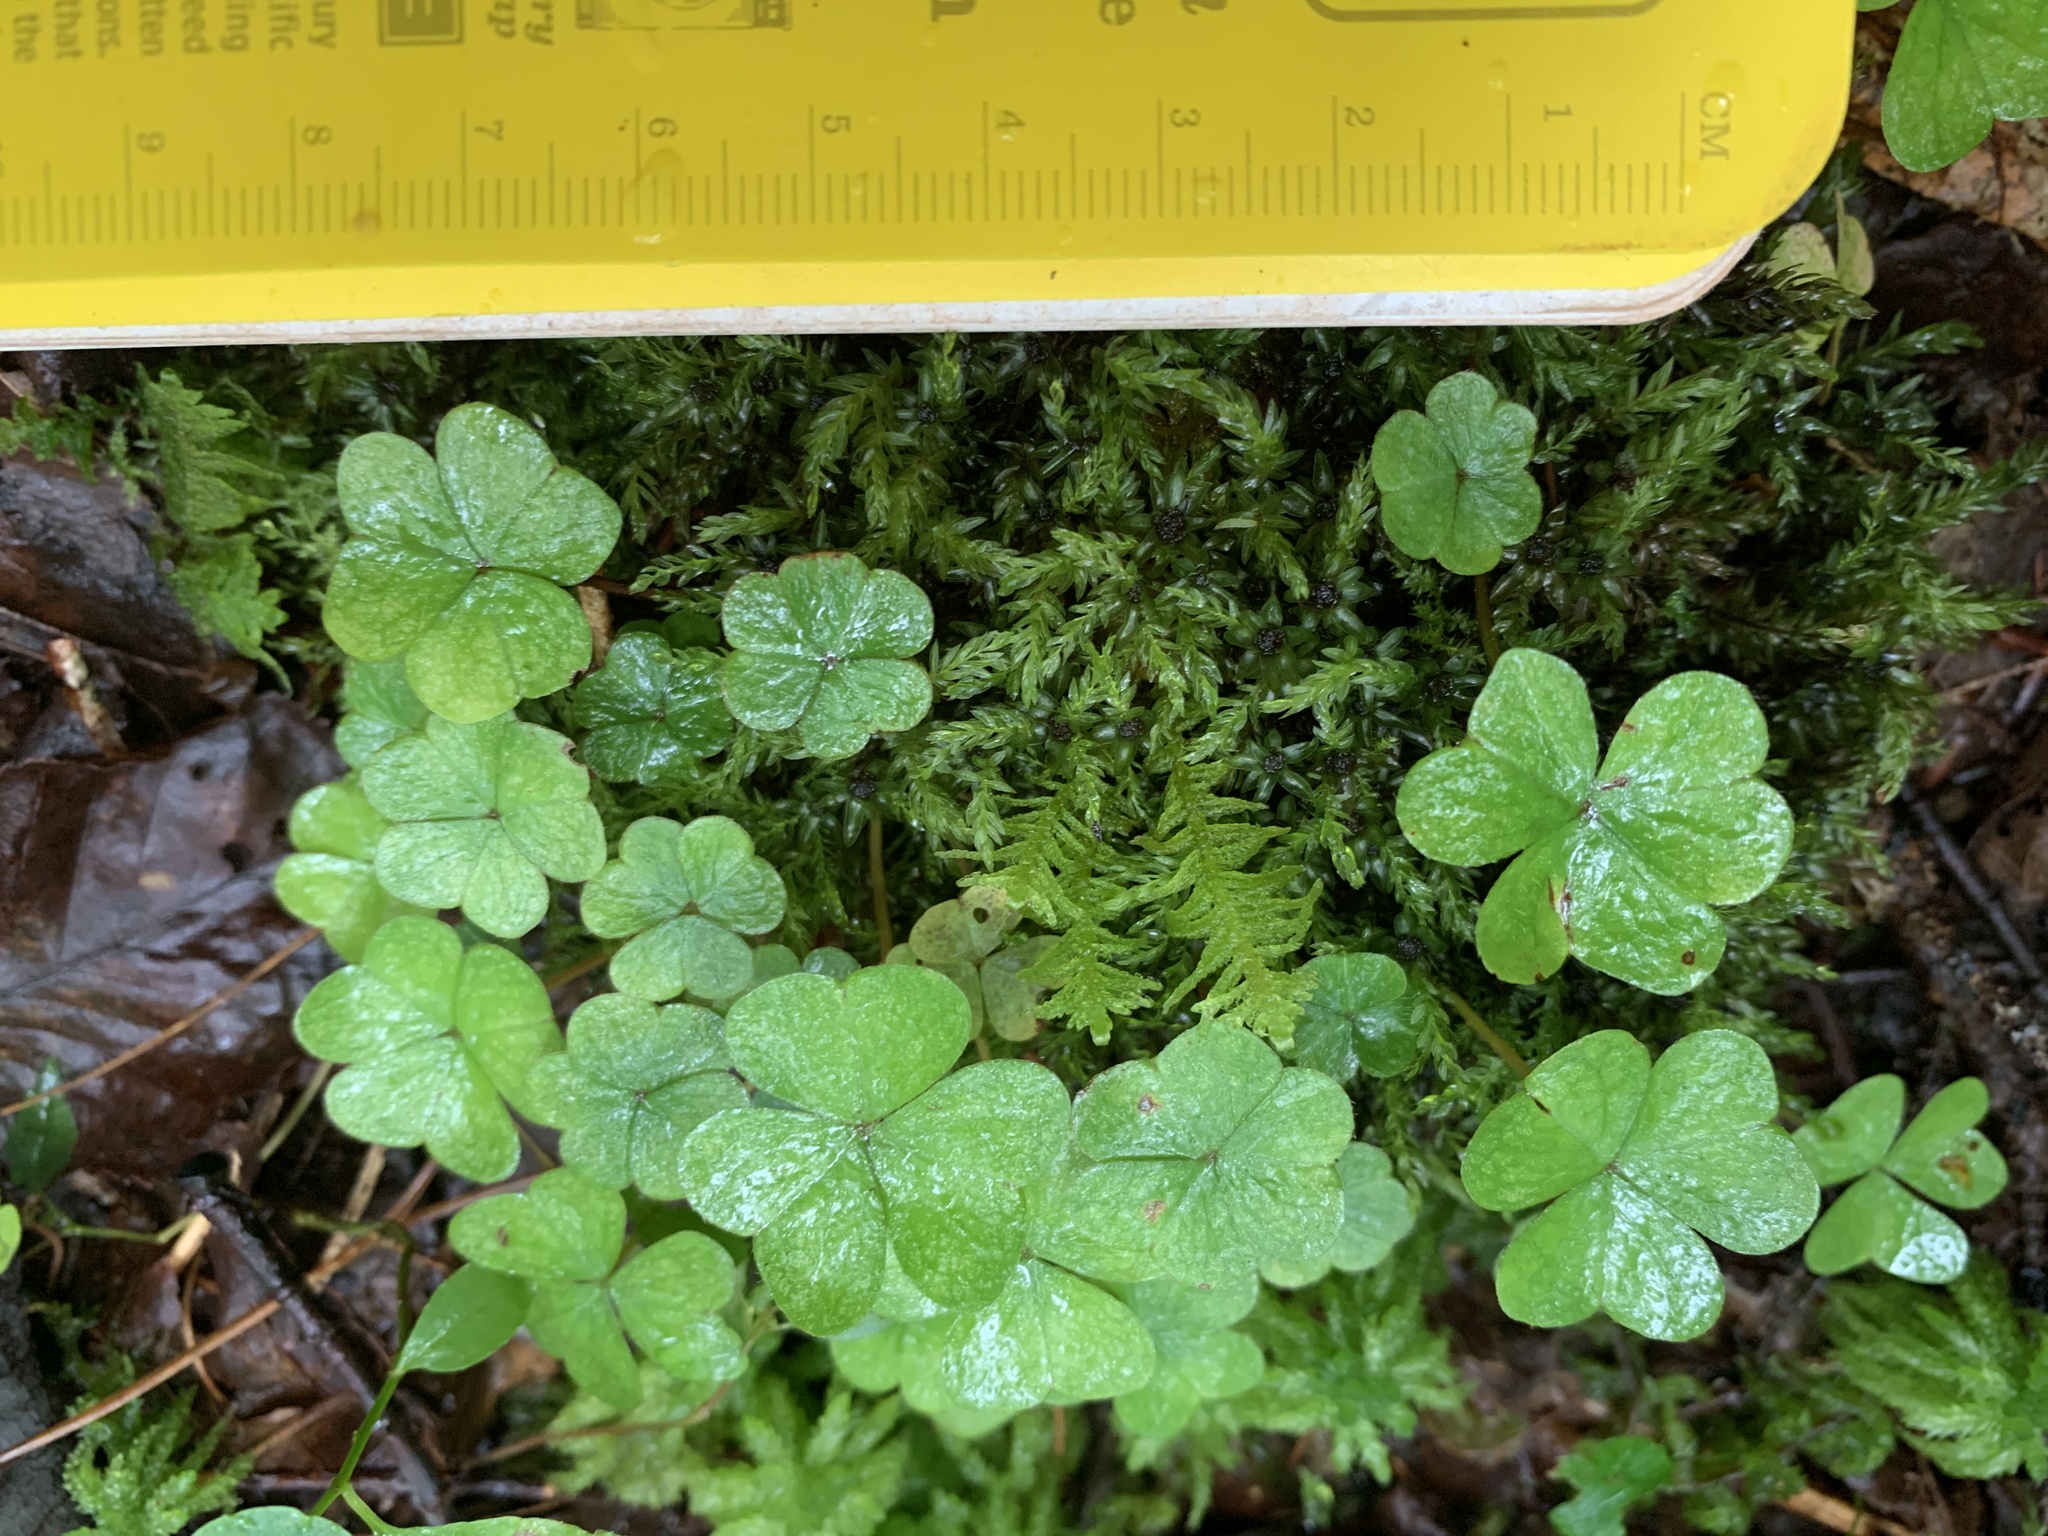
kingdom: Plantae
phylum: Tracheophyta
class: Magnoliopsida
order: Oxalidales
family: Oxalidaceae
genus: Oxalis
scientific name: Oxalis montana
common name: American wood-sorrel
